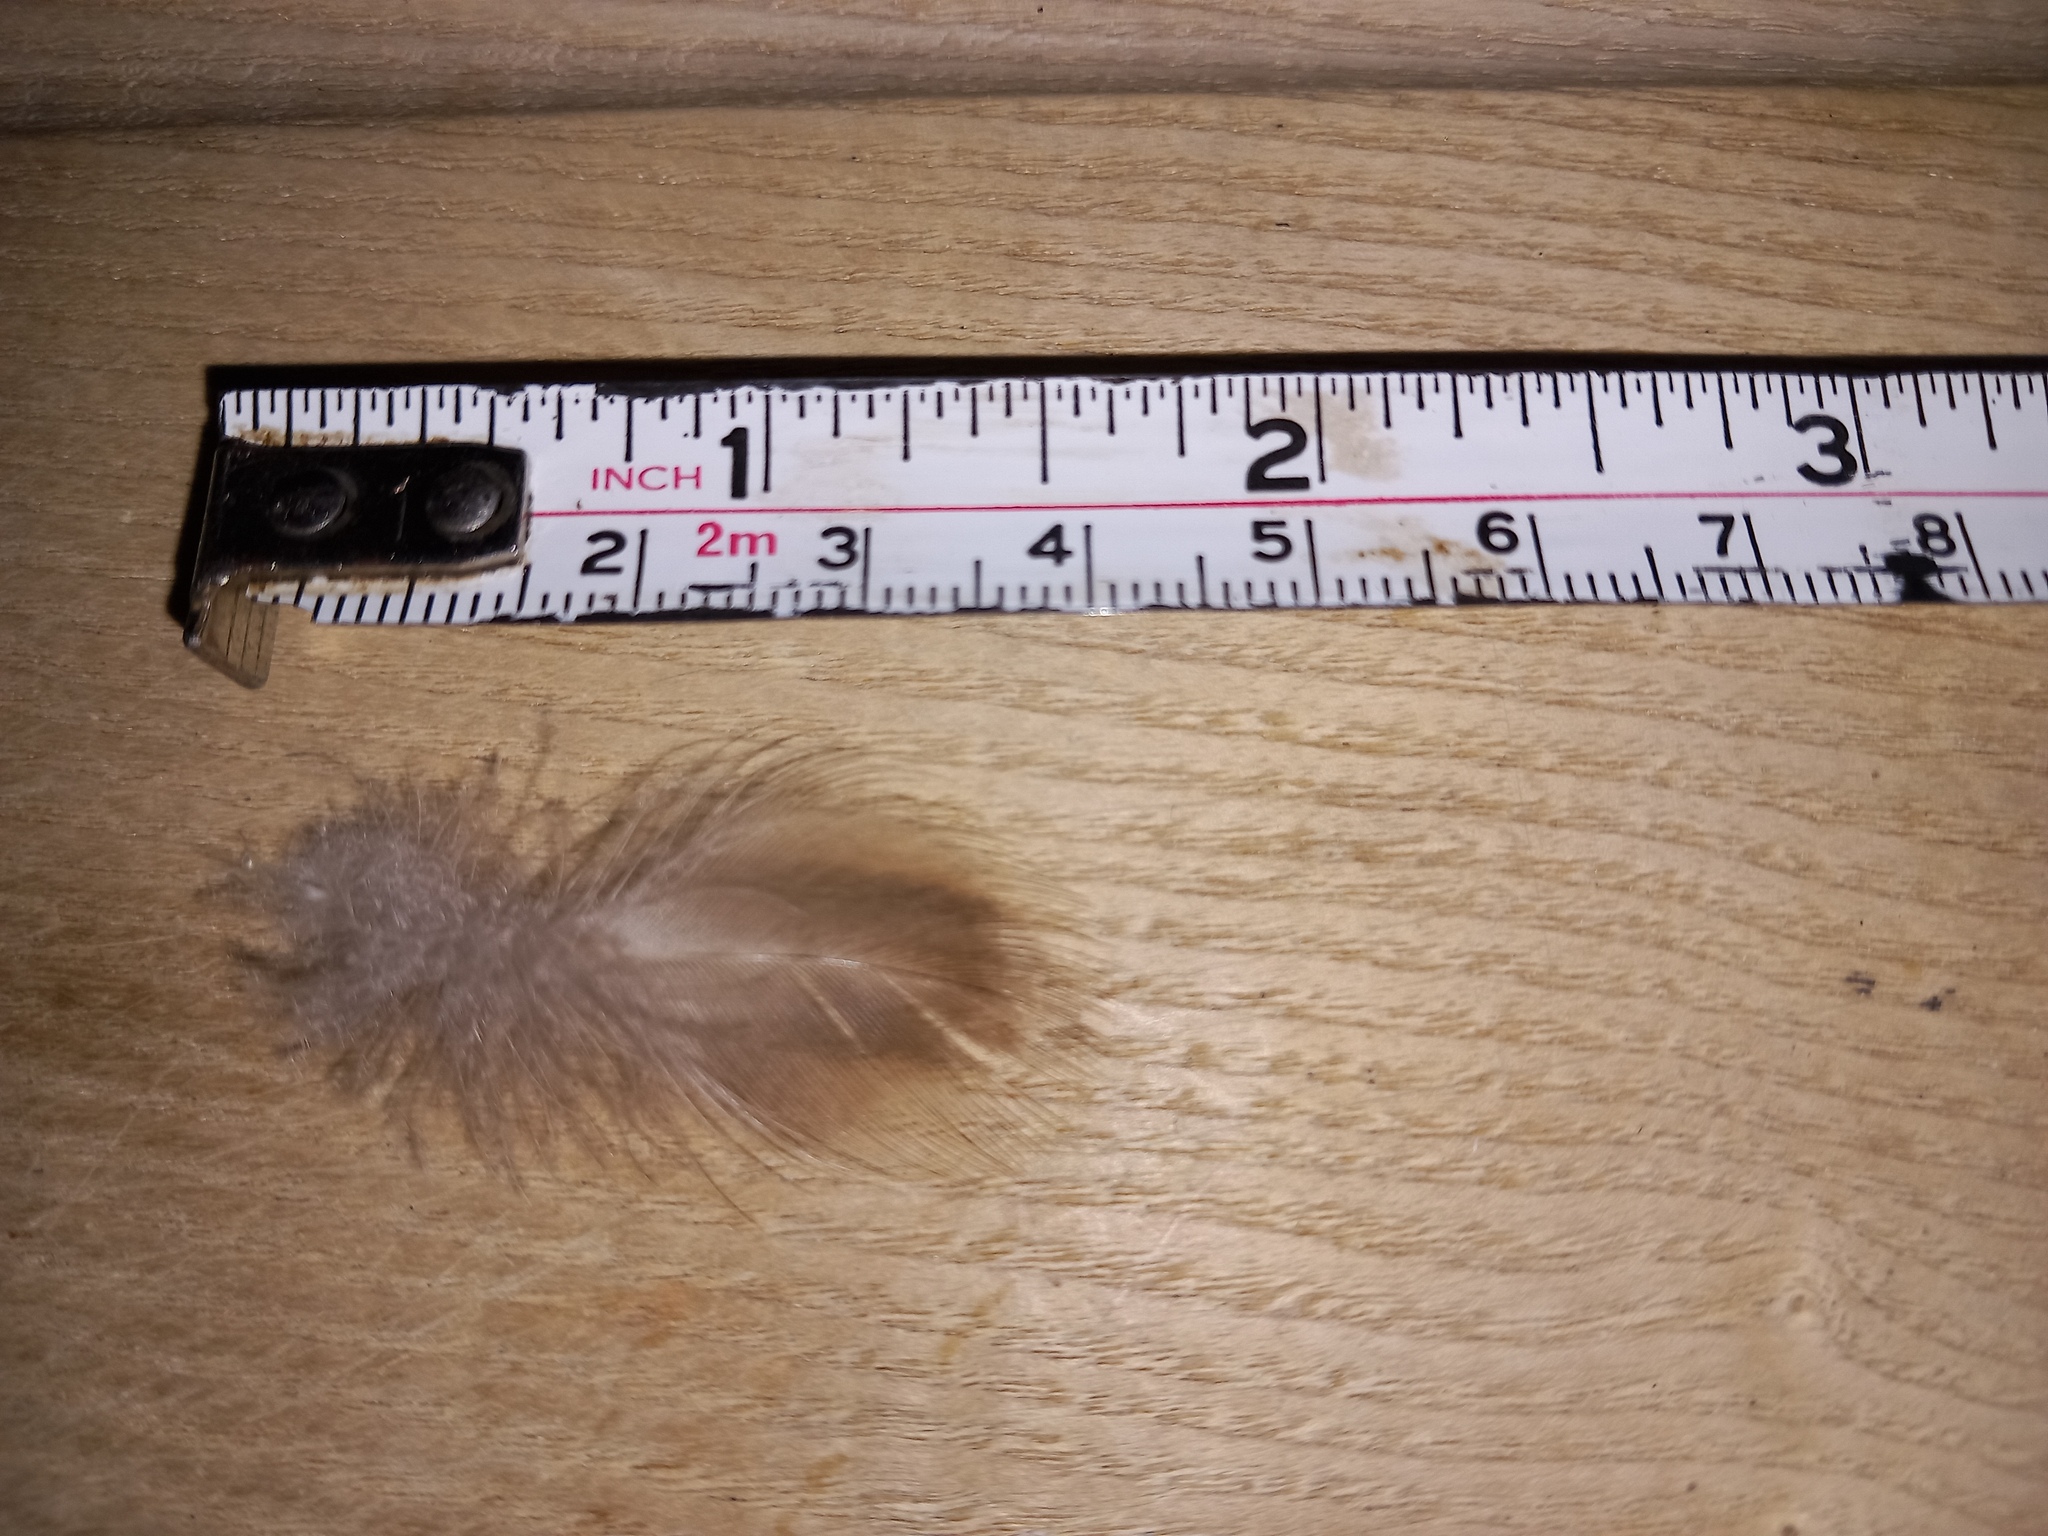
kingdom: Animalia
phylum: Chordata
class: Aves
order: Anseriformes
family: Anatidae
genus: Anas
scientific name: Anas platyrhynchos
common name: Mallard
